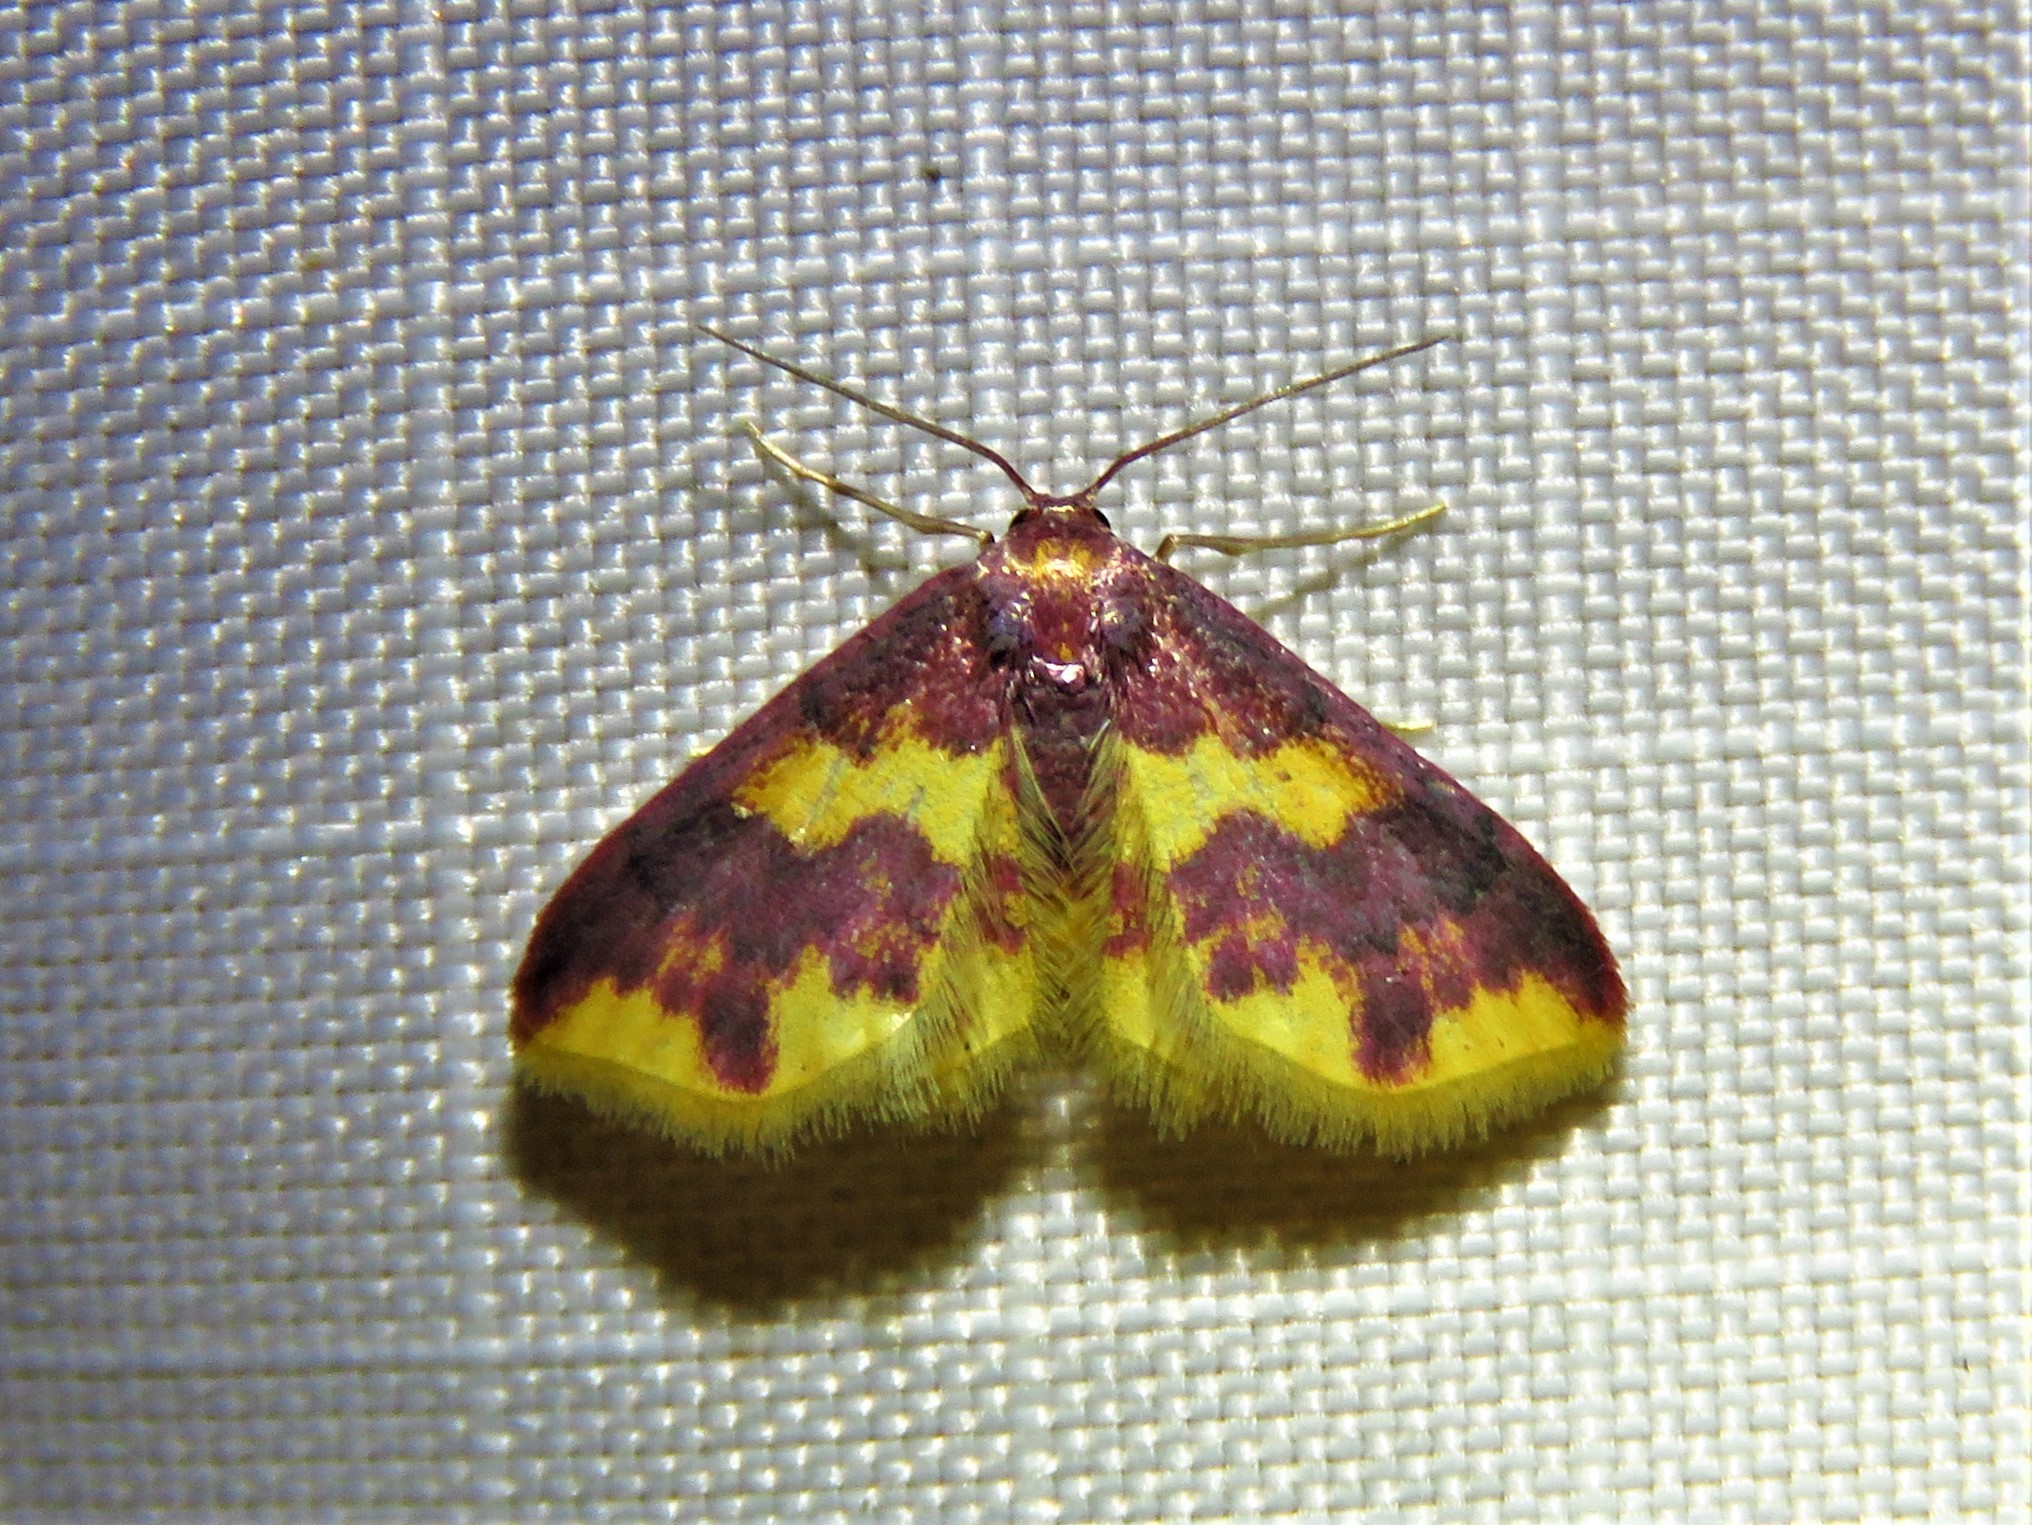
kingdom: Animalia
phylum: Arthropoda
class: Insecta
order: Lepidoptera
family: Geometridae
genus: Lophosis
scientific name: Lophosis labeculata
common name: Stained lophosis moth
